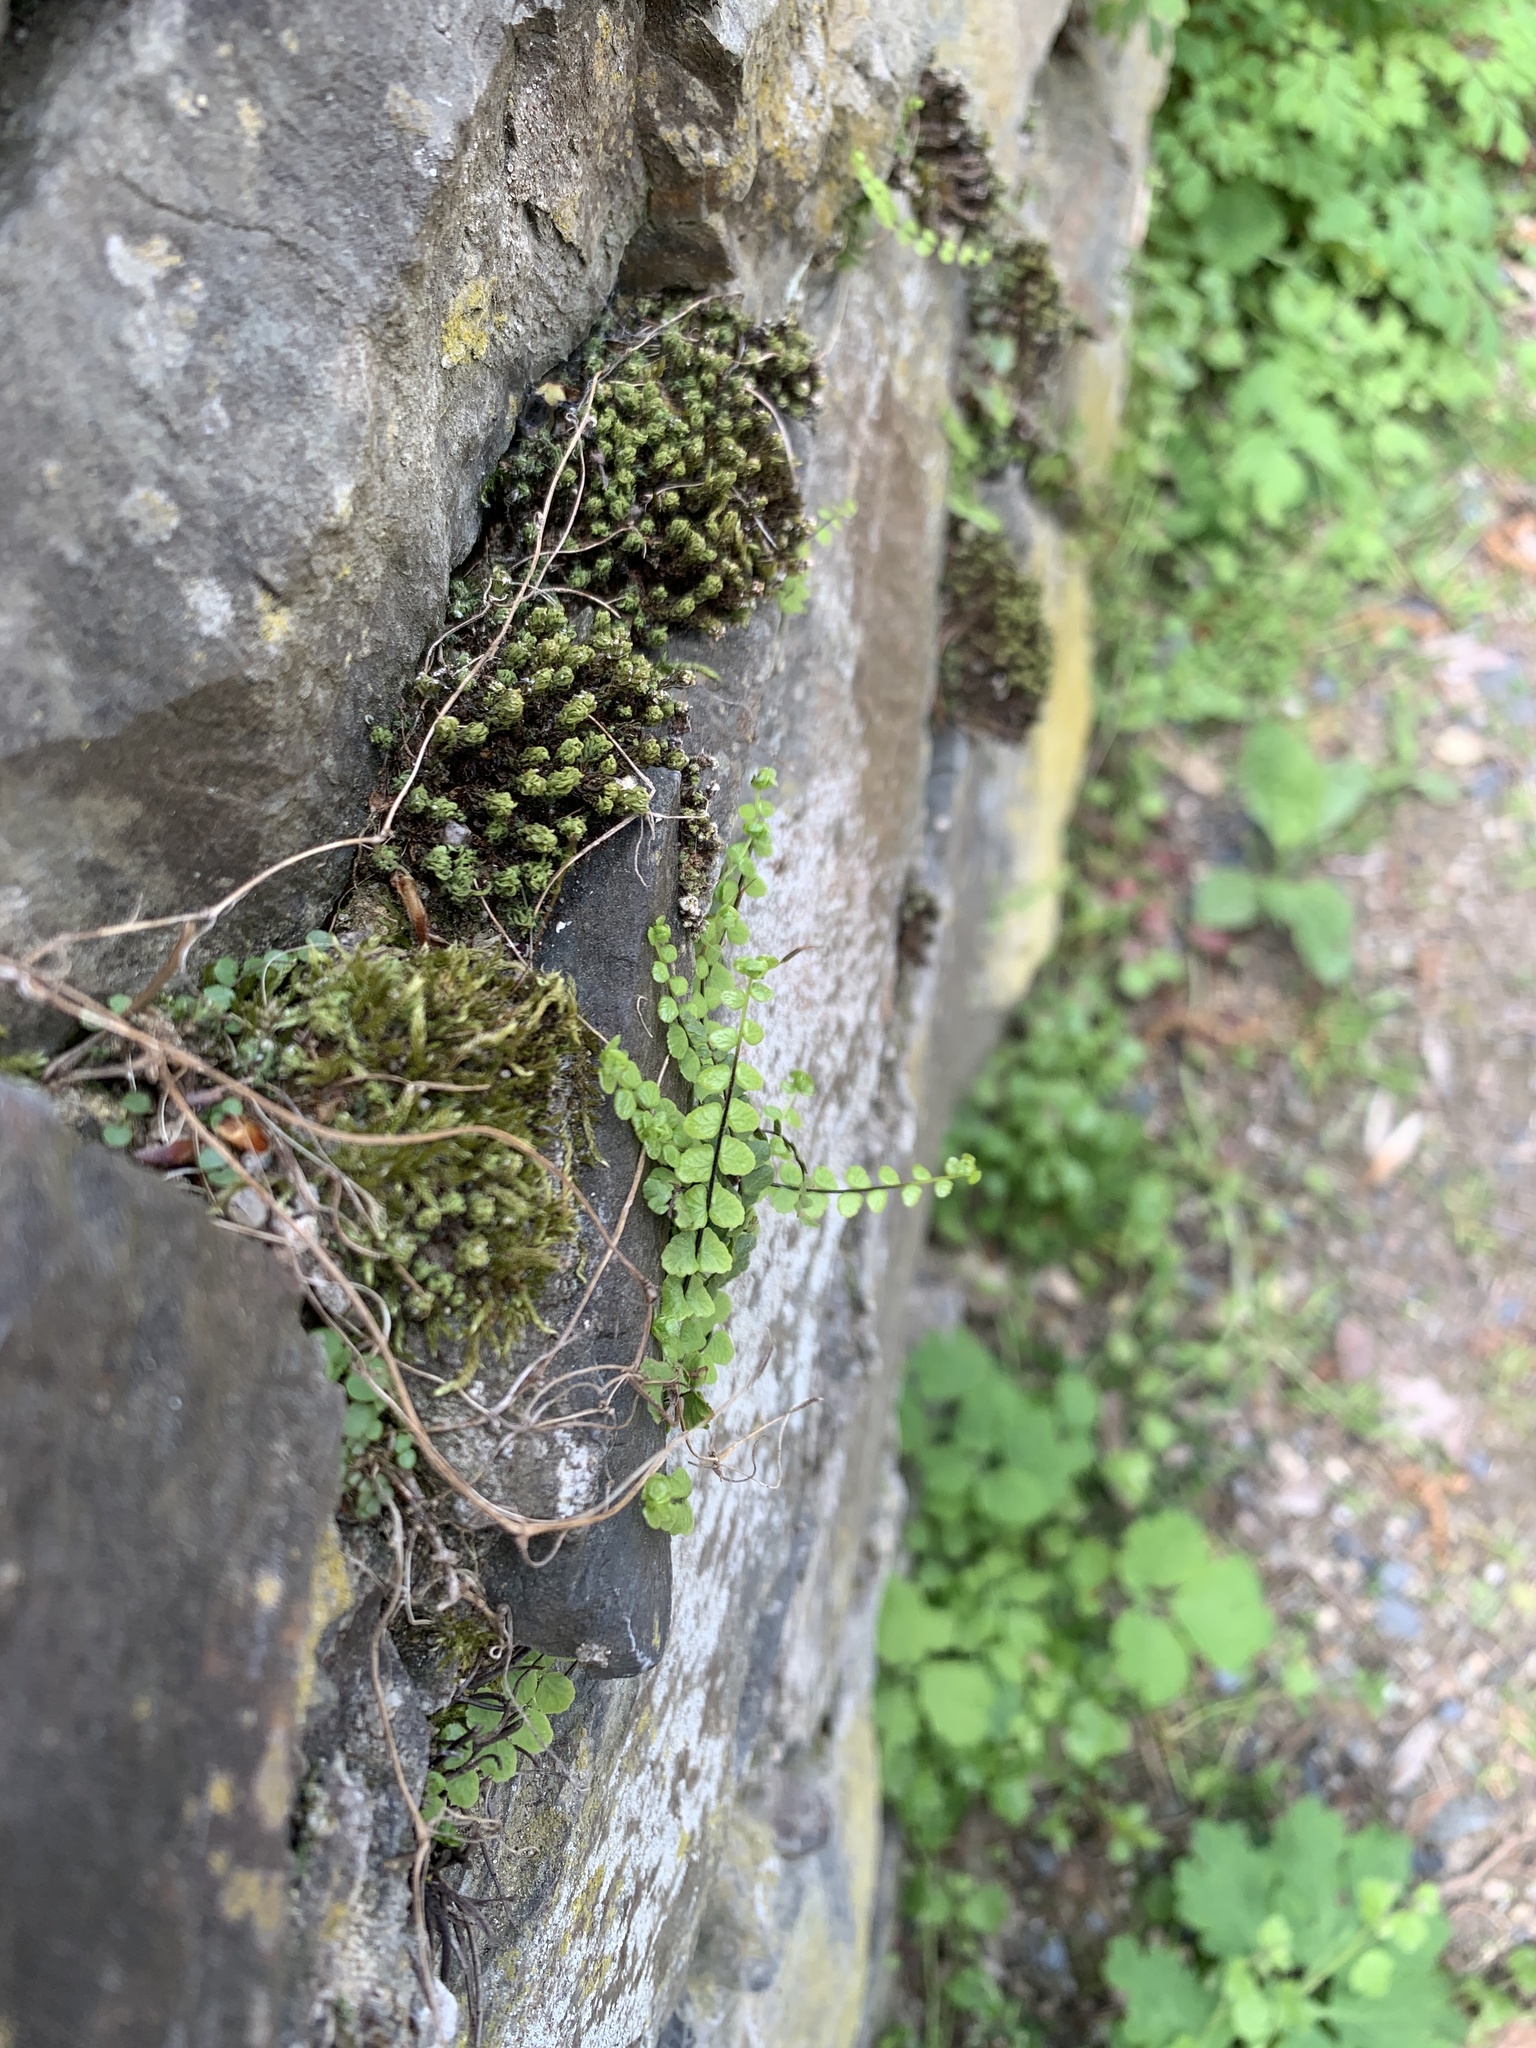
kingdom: Plantae
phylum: Tracheophyta
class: Polypodiopsida
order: Polypodiales
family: Aspleniaceae
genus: Asplenium
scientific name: Asplenium trichomanes
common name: Maidenhair spleenwort
